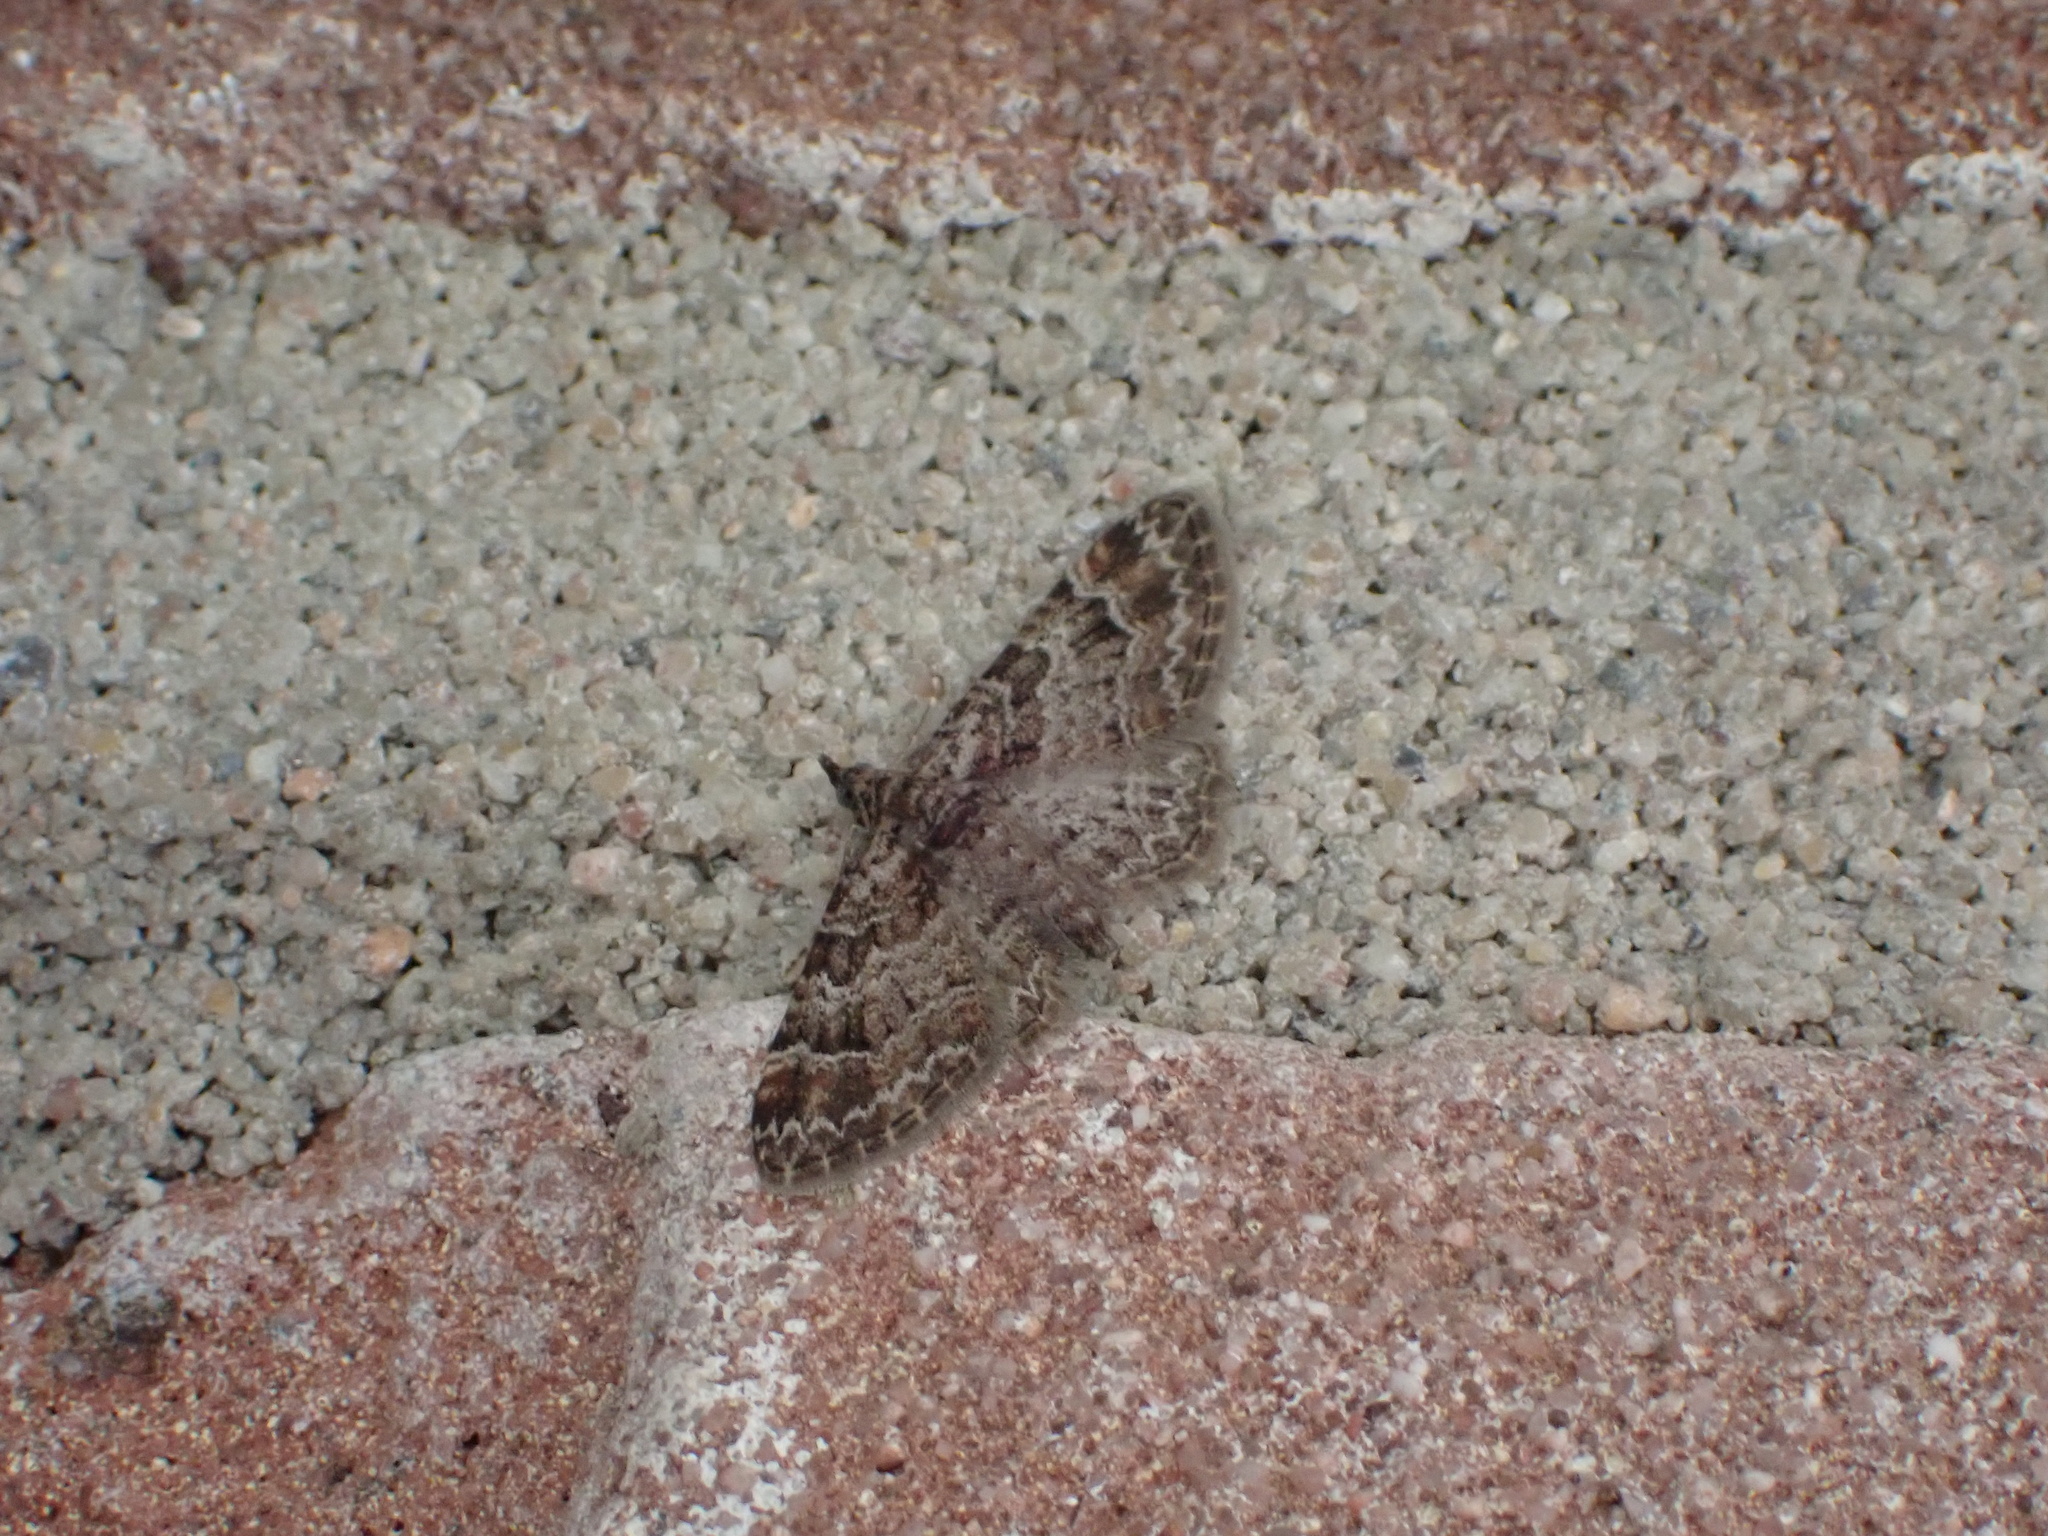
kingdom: Animalia
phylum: Arthropoda
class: Insecta
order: Lepidoptera
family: Geometridae
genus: Gymnoscelis
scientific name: Gymnoscelis rufifasciata
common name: Double-striped pug
